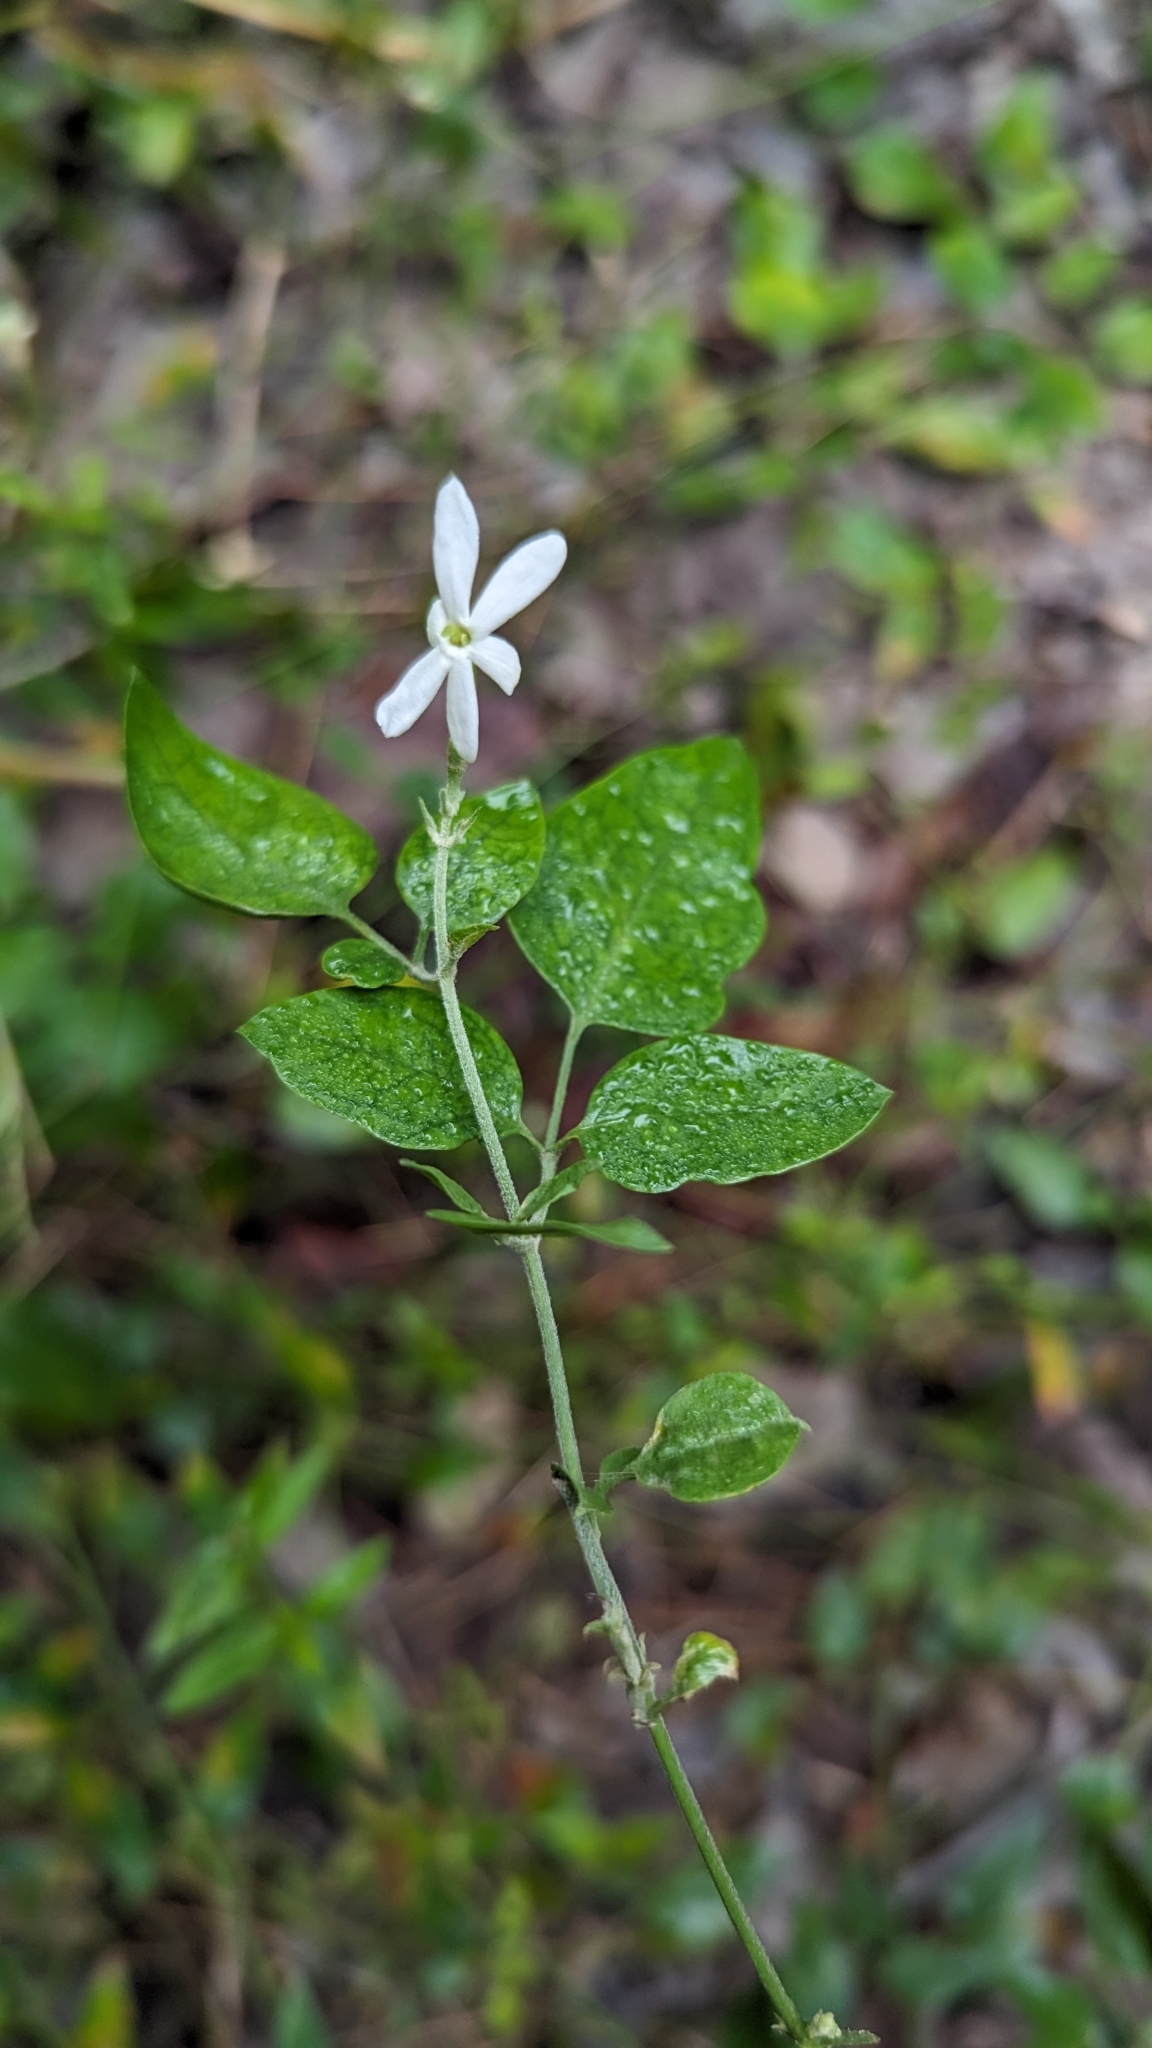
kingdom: Plantae
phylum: Tracheophyta
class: Magnoliopsida
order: Lamiales
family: Oleaceae
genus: Jasminum
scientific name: Jasminum fluminense
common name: Brazilian jasmine
